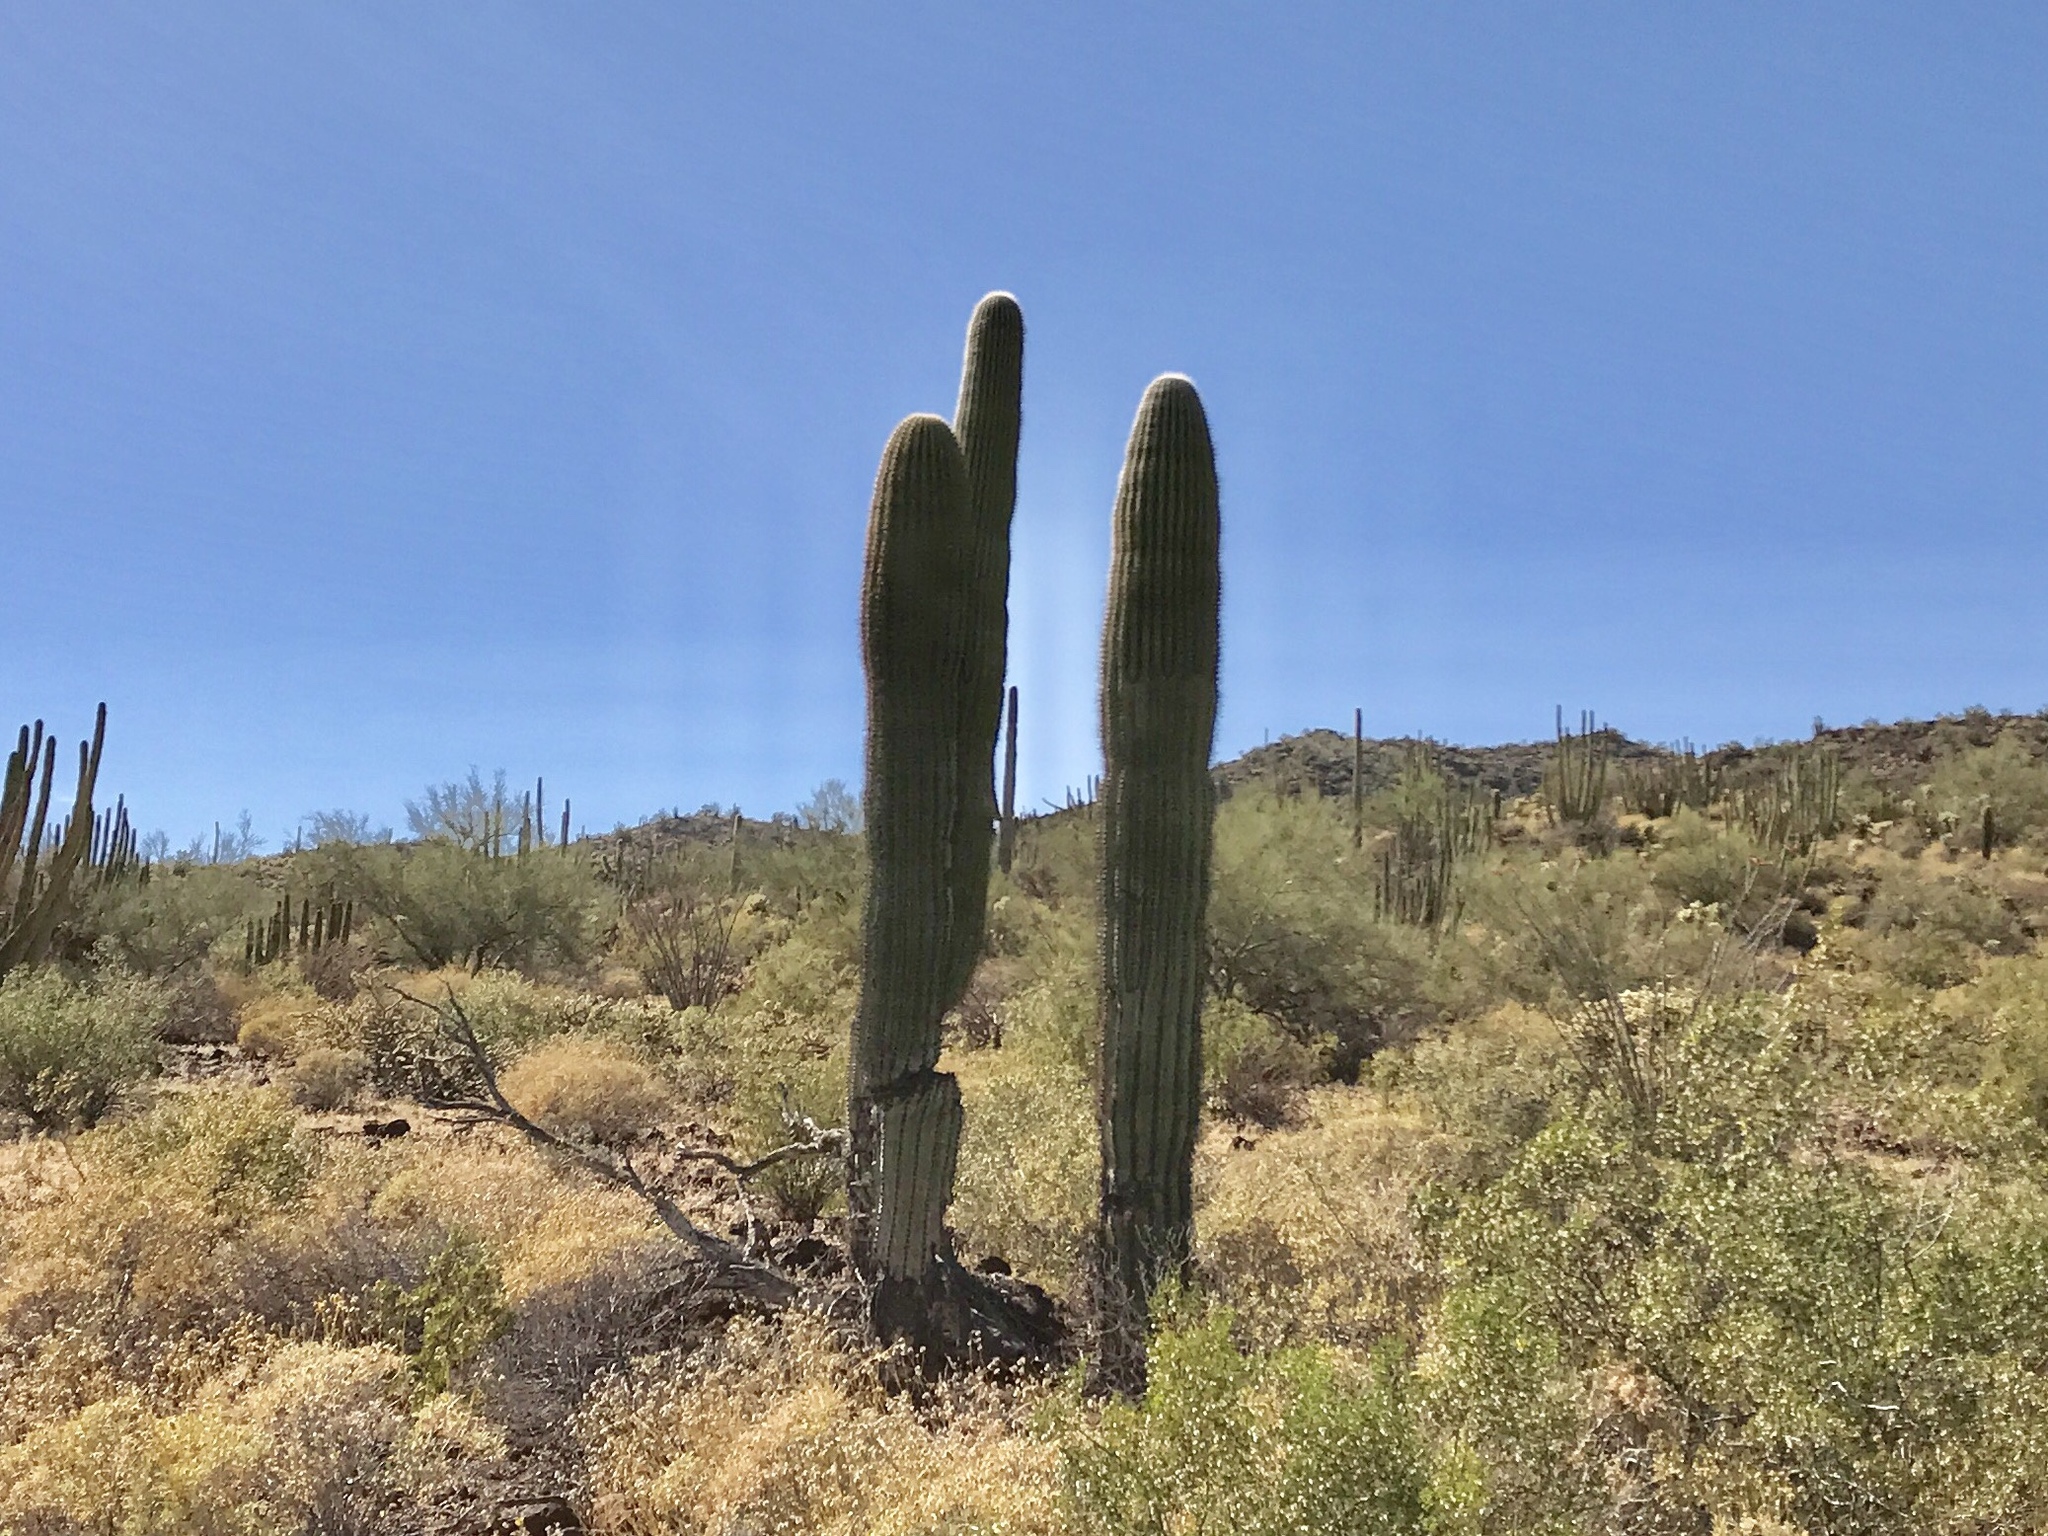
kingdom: Plantae
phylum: Tracheophyta
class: Magnoliopsida
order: Caryophyllales
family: Cactaceae
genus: Carnegiea
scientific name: Carnegiea gigantea
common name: Saguaro
